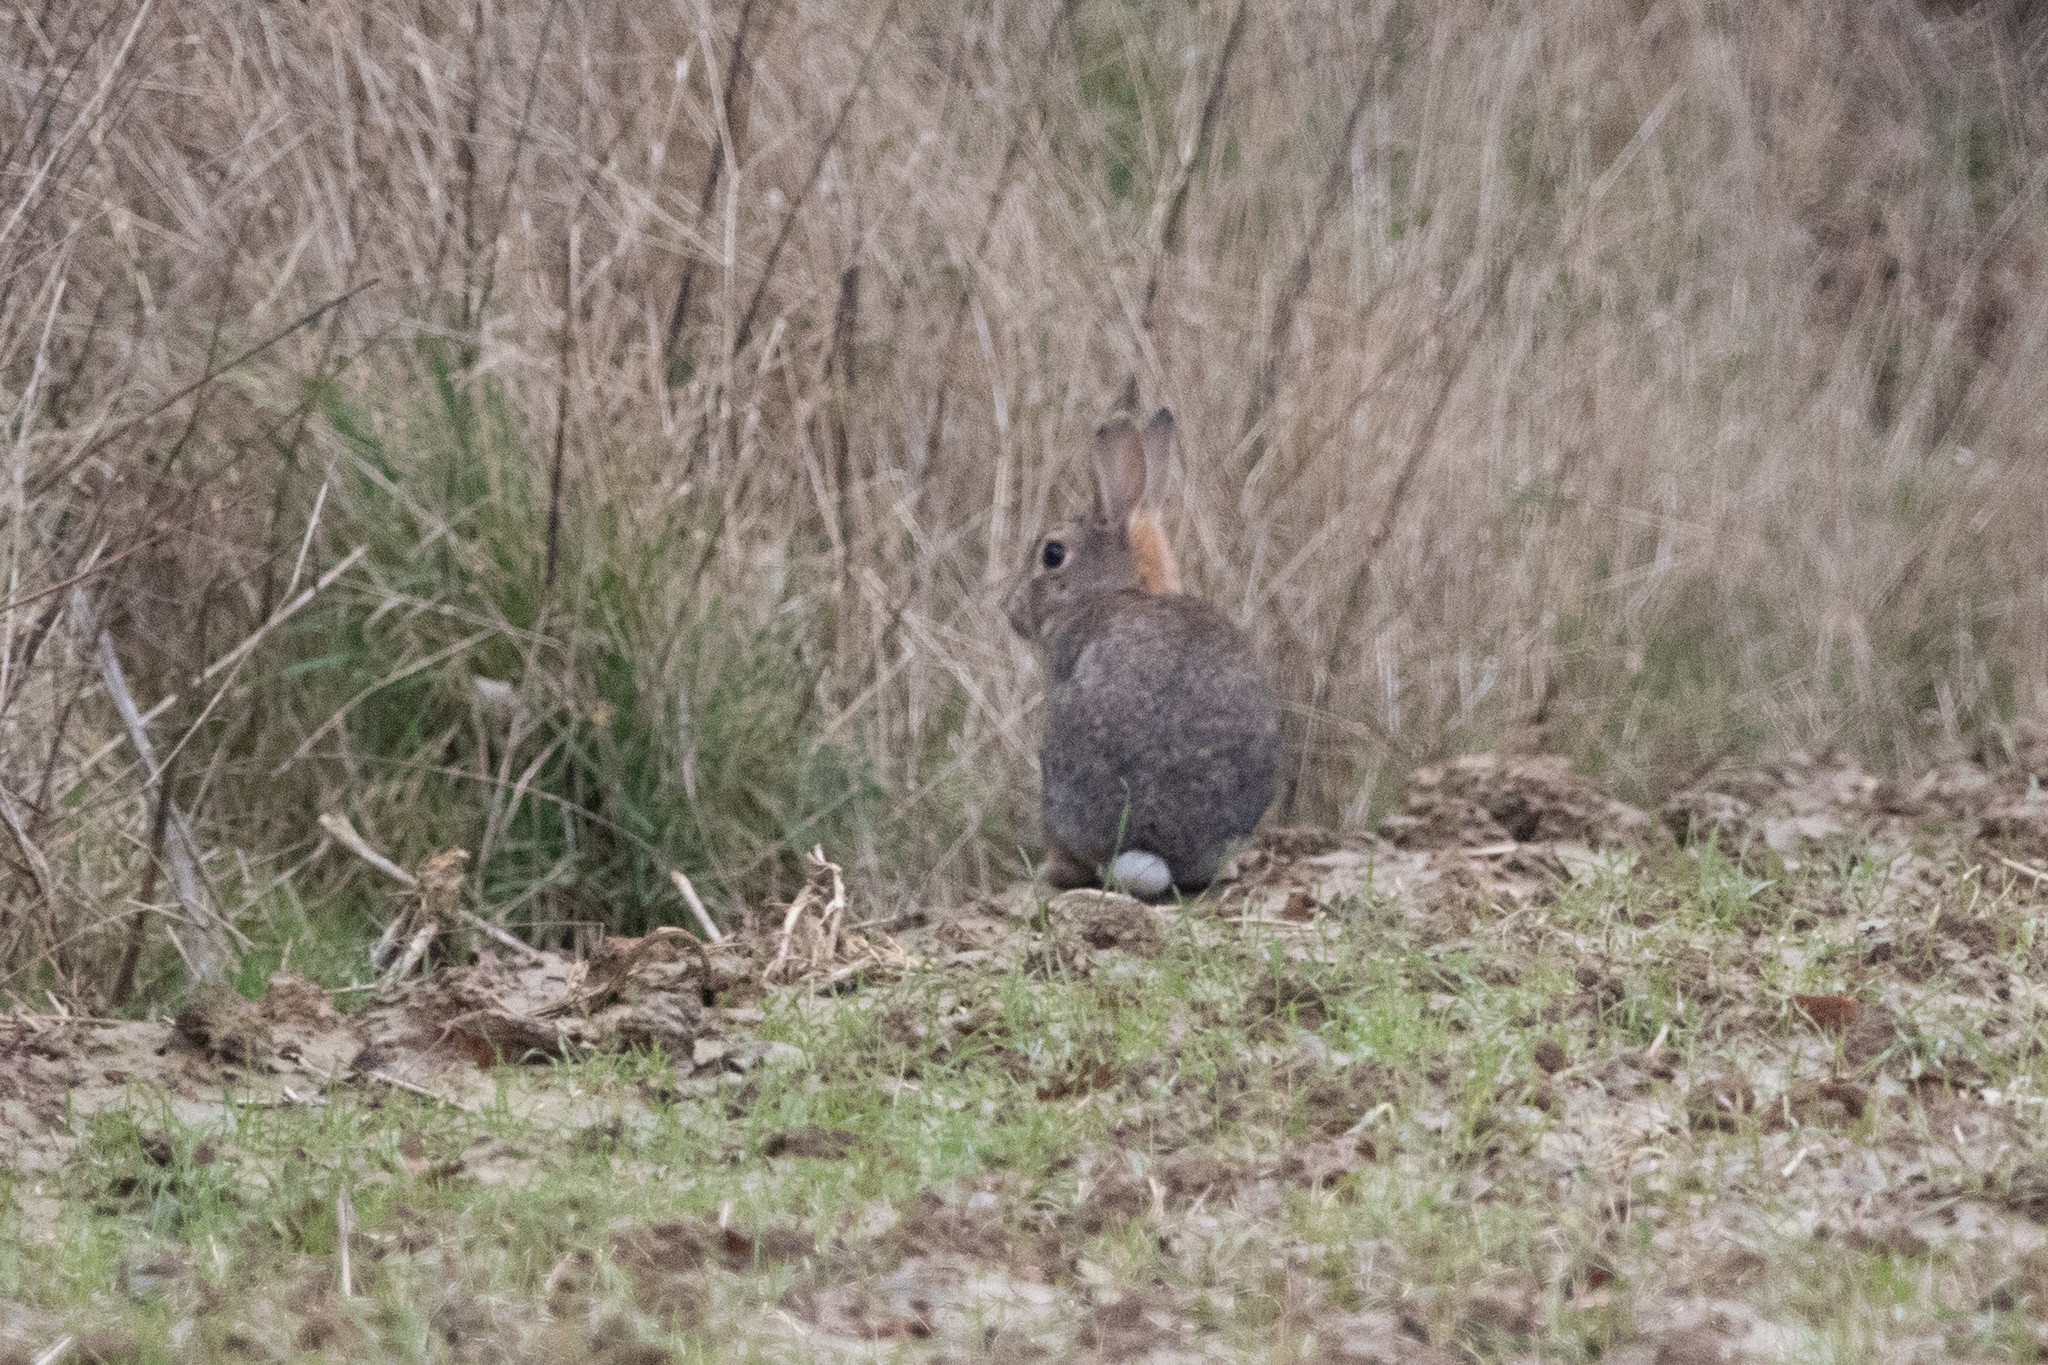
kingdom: Animalia
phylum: Chordata
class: Mammalia
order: Lagomorpha
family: Leporidae
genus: Oryctolagus
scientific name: Oryctolagus cuniculus
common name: European rabbit
